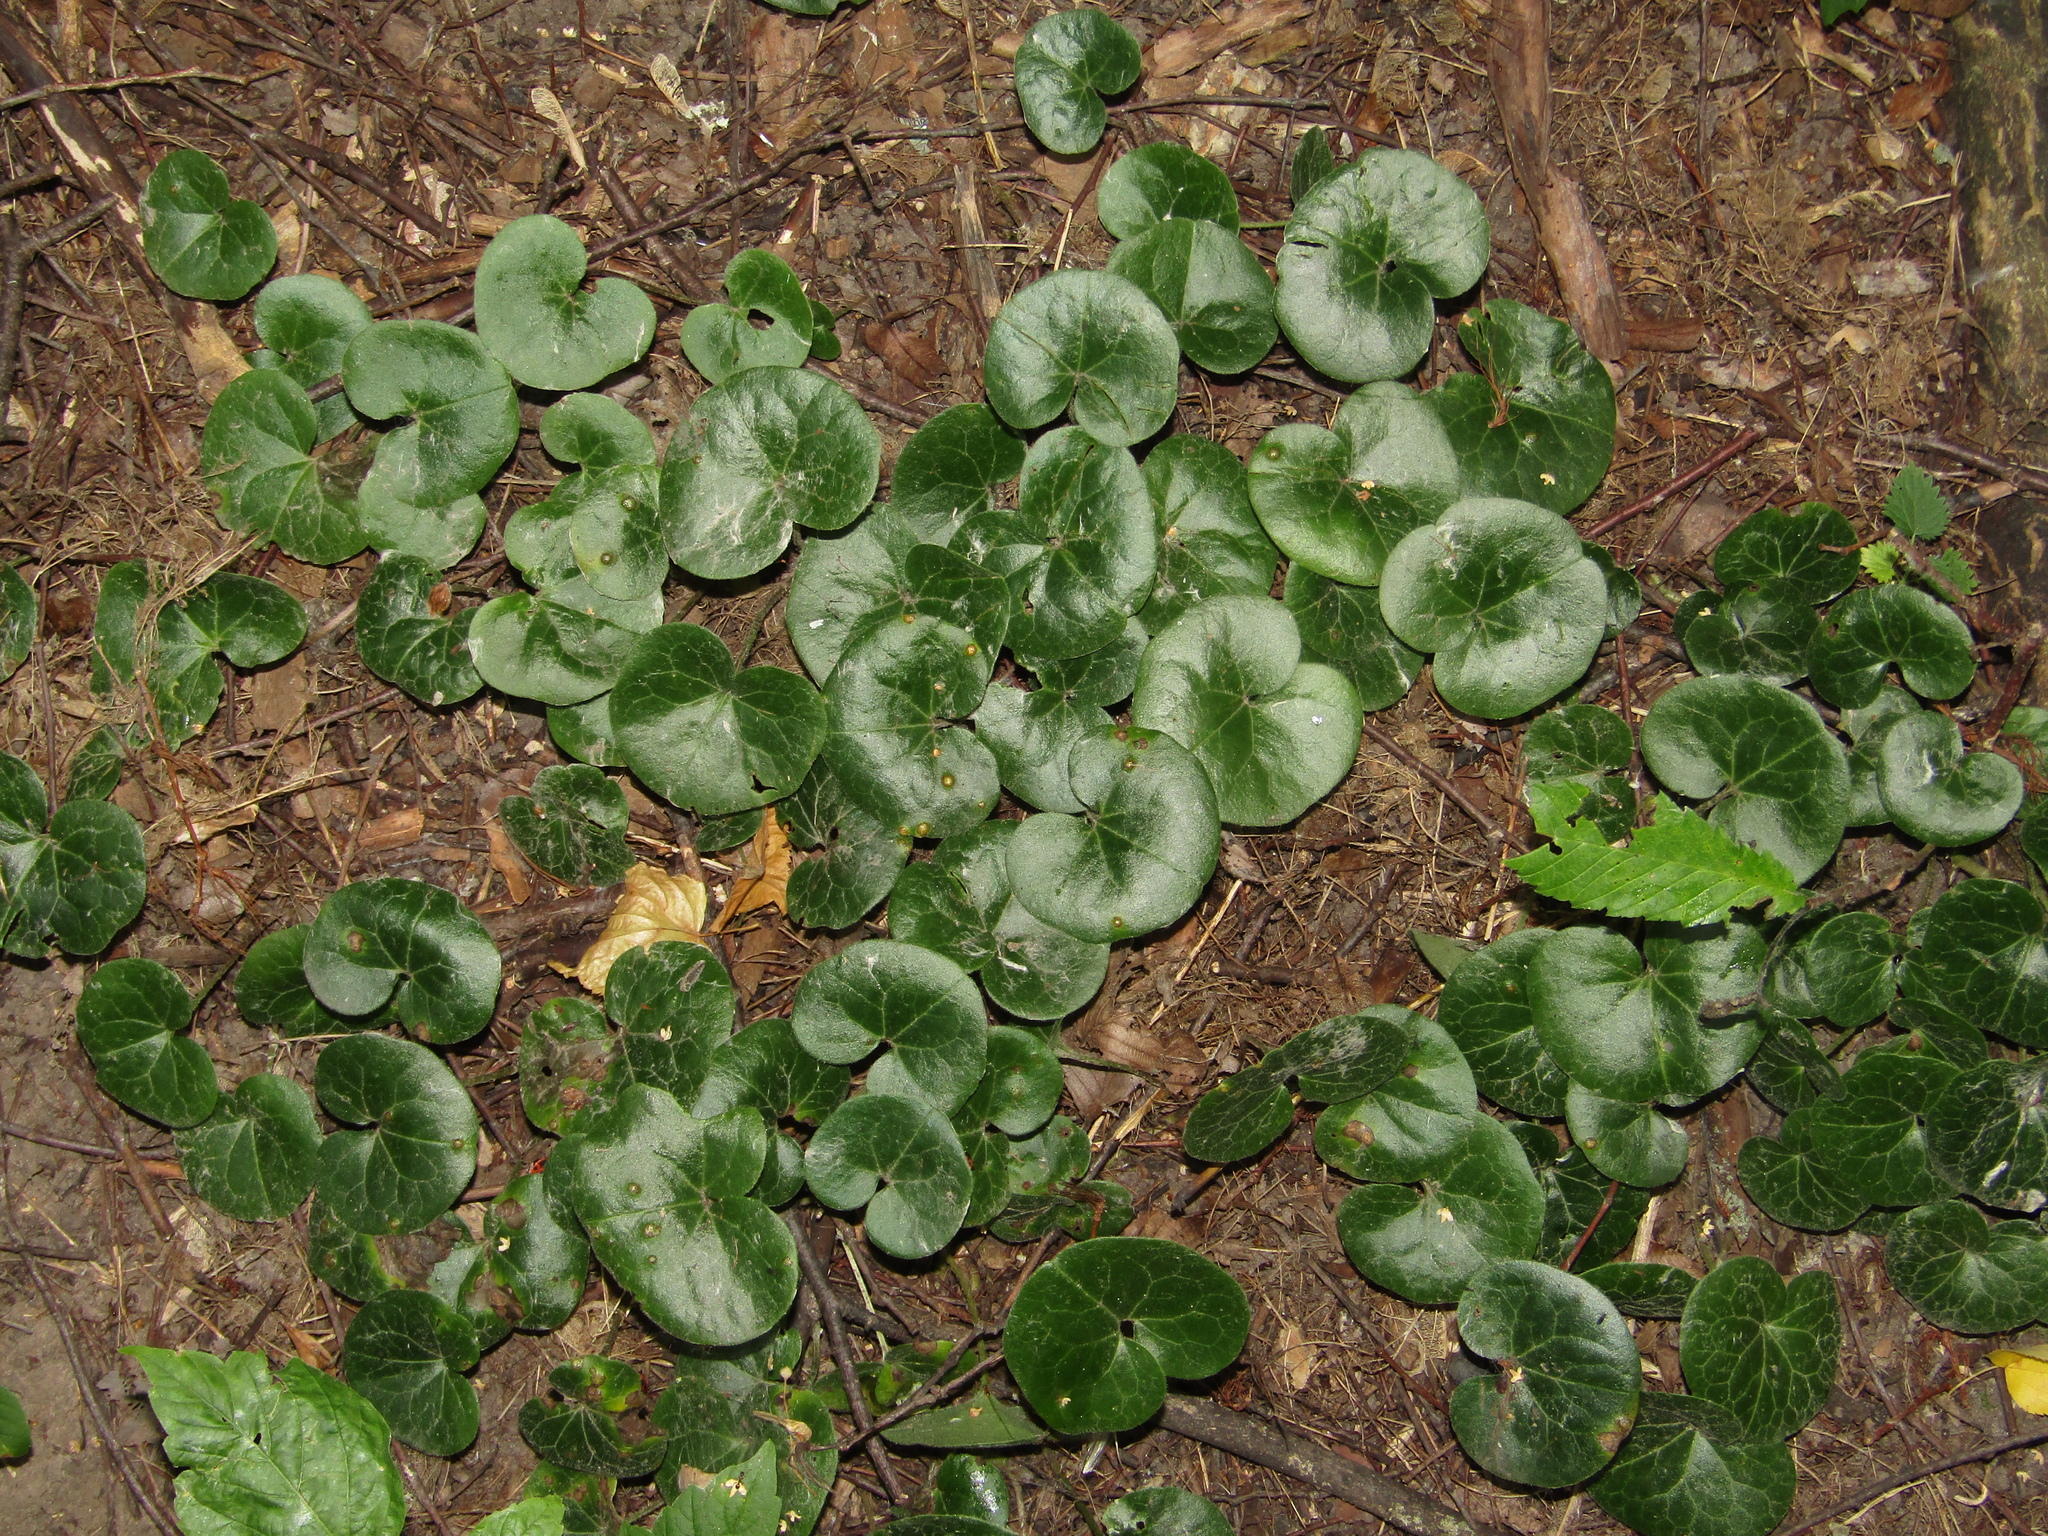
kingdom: Plantae
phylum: Tracheophyta
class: Magnoliopsida
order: Piperales
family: Aristolochiaceae
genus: Asarum
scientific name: Asarum europaeum
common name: Asarabacca
